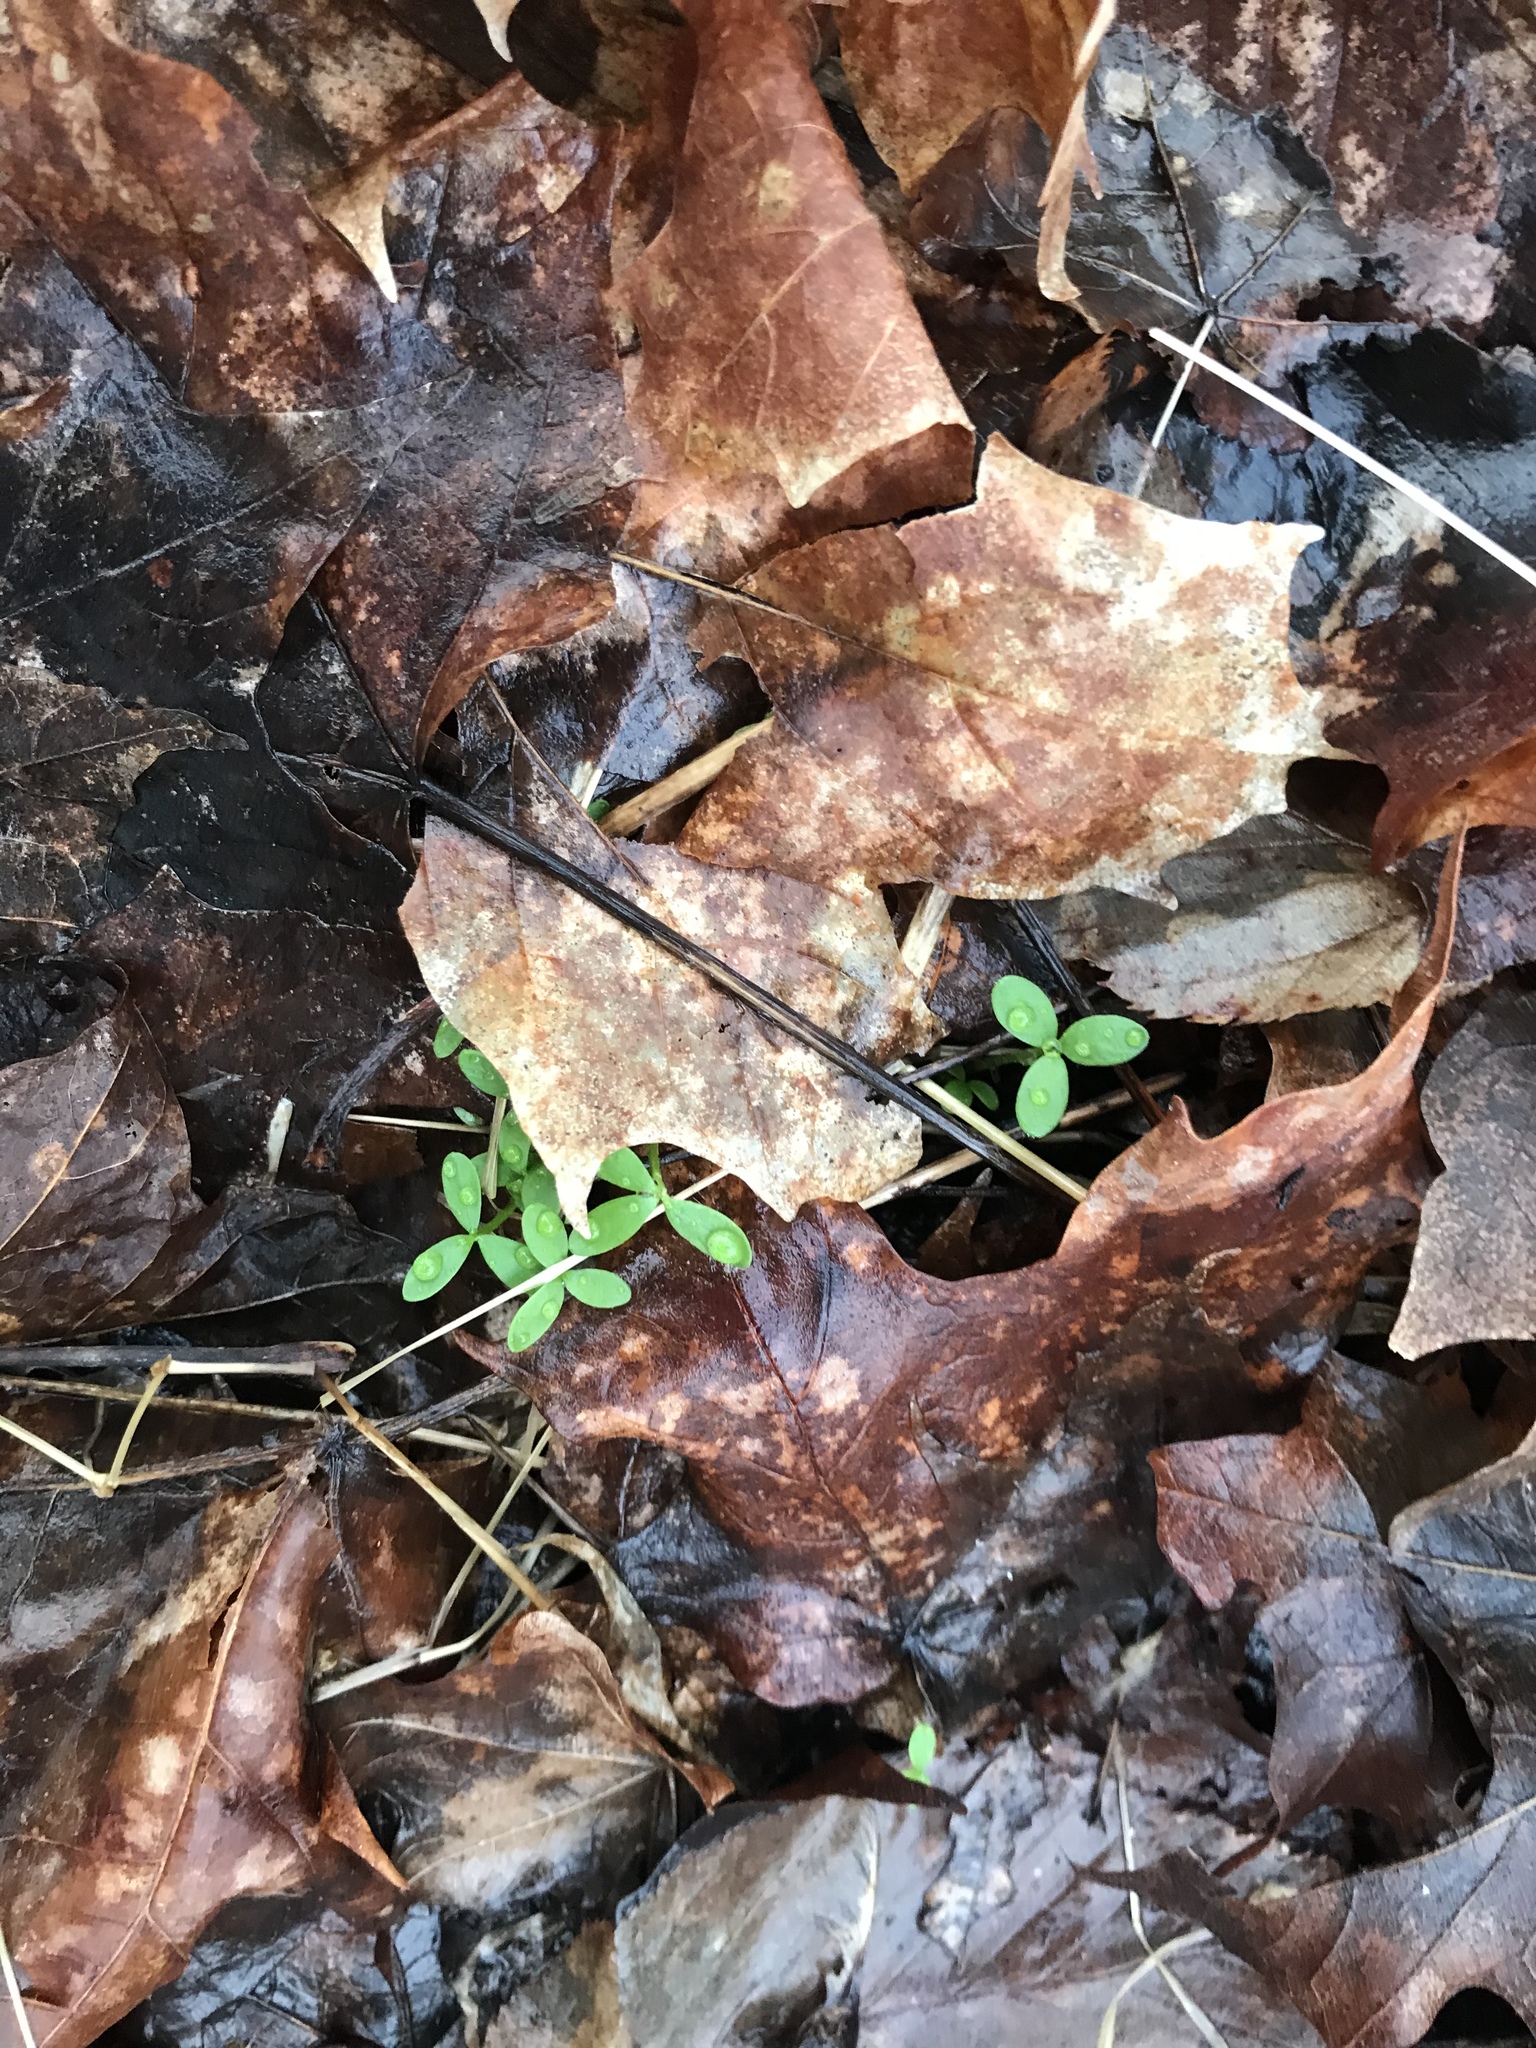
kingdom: Plantae
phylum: Tracheophyta
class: Magnoliopsida
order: Brassicales
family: Limnanthaceae
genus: Floerkea
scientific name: Floerkea proserpinacoides
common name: False mermaid
